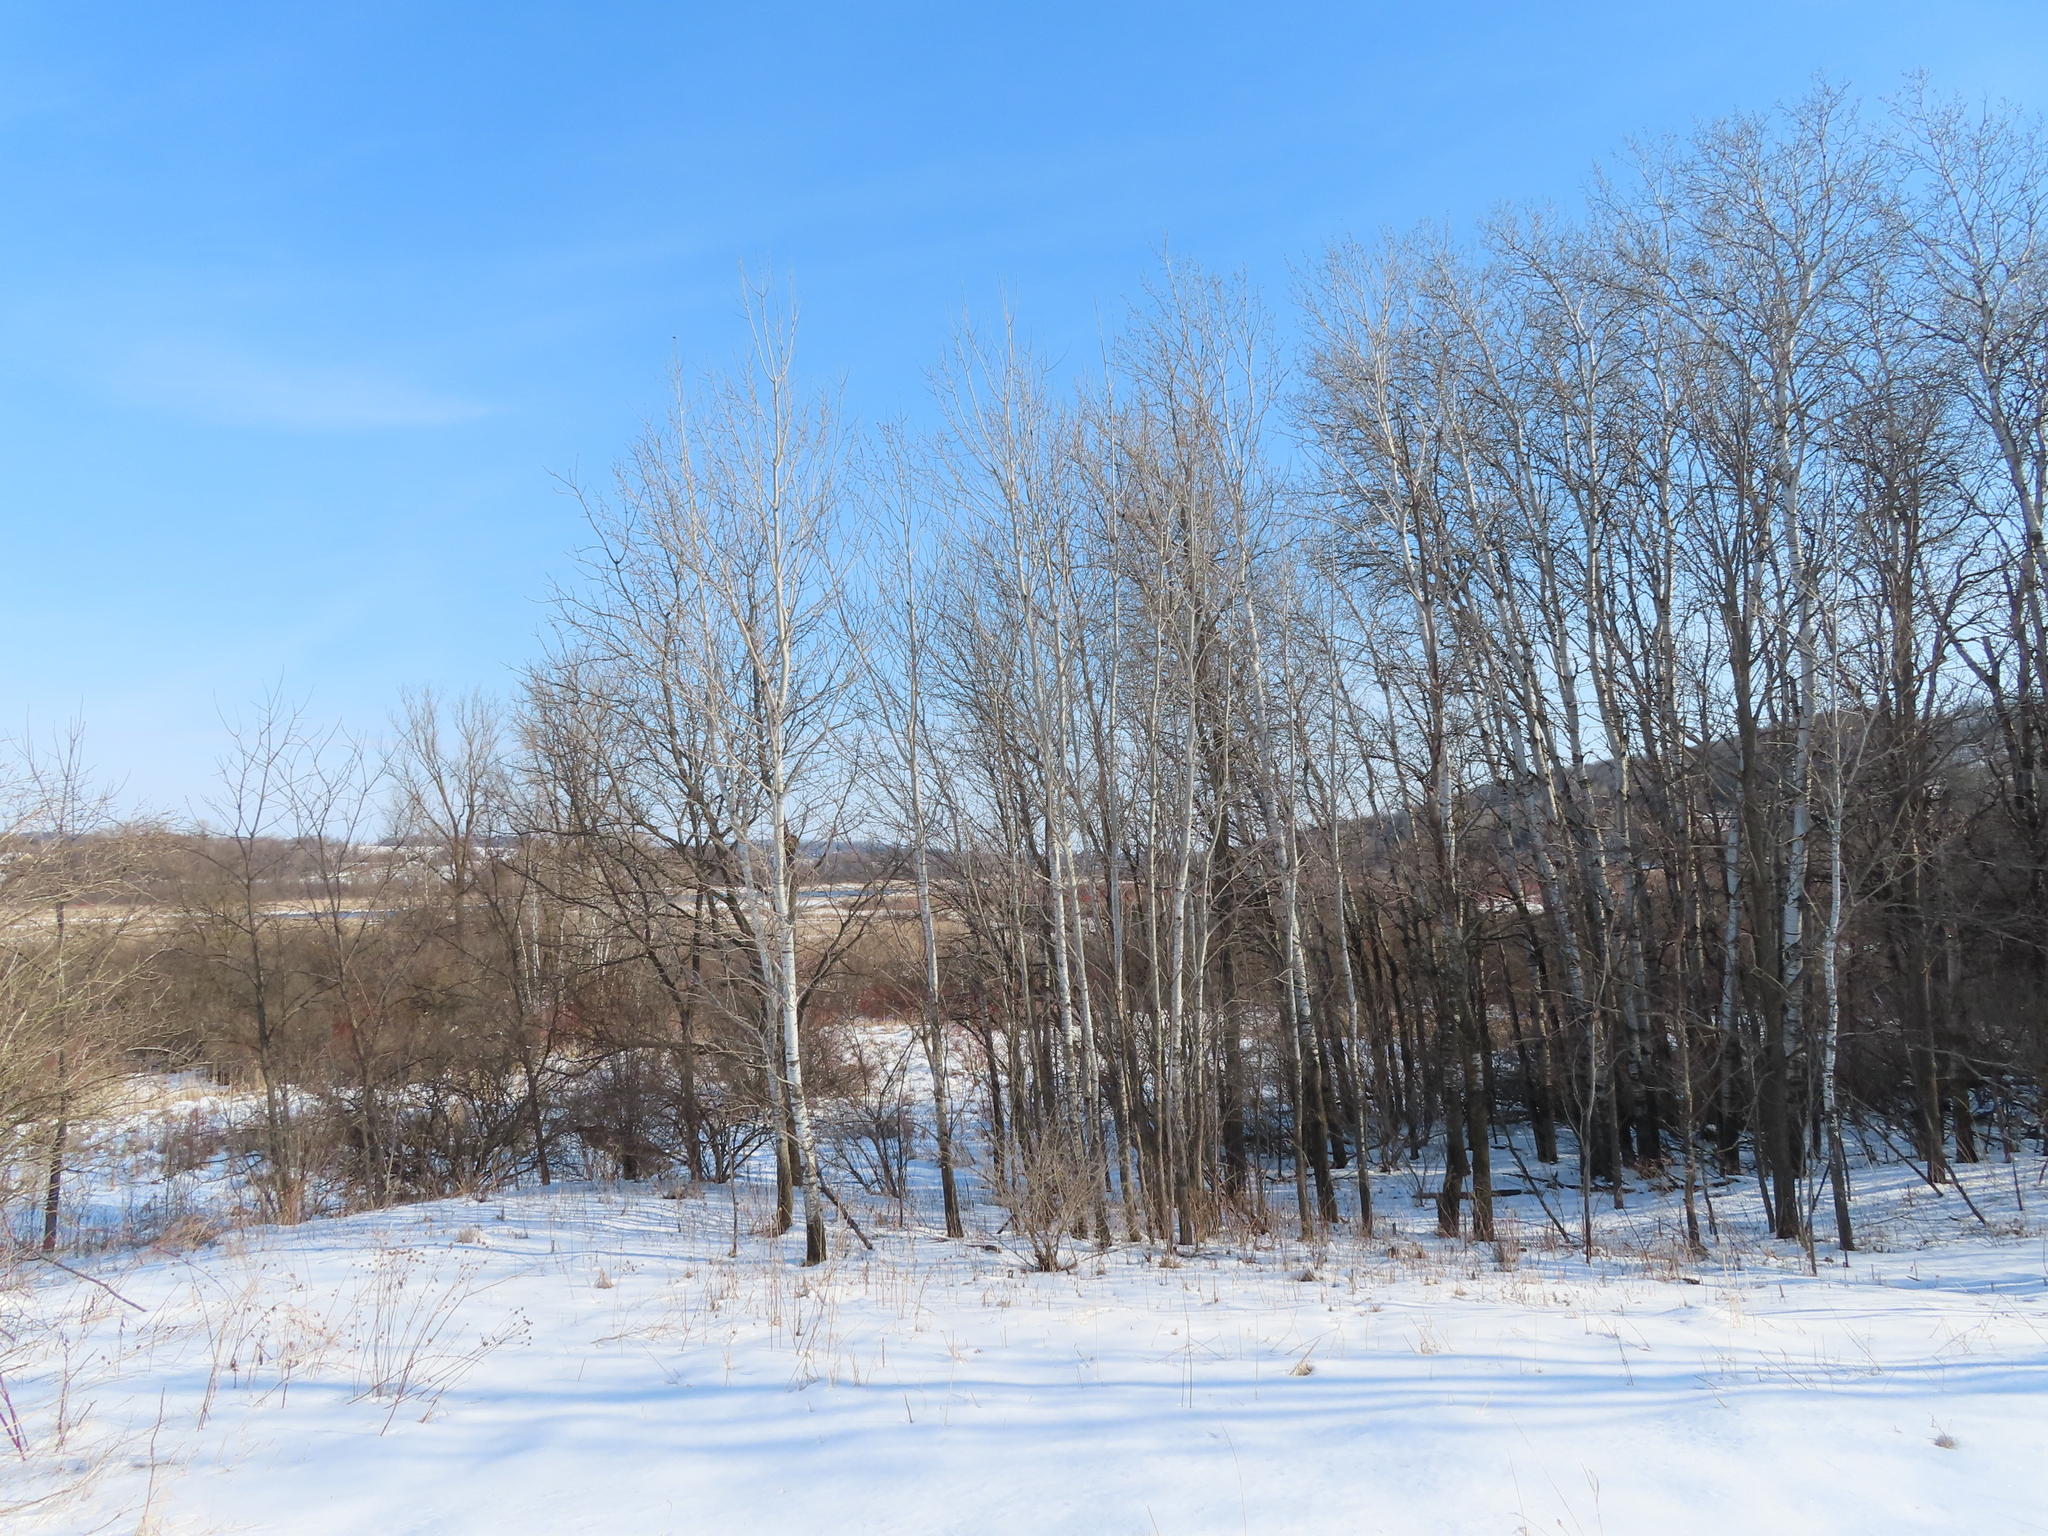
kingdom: Plantae
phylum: Tracheophyta
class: Magnoliopsida
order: Malpighiales
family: Salicaceae
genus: Populus
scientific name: Populus tremuloides
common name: Quaking aspen
